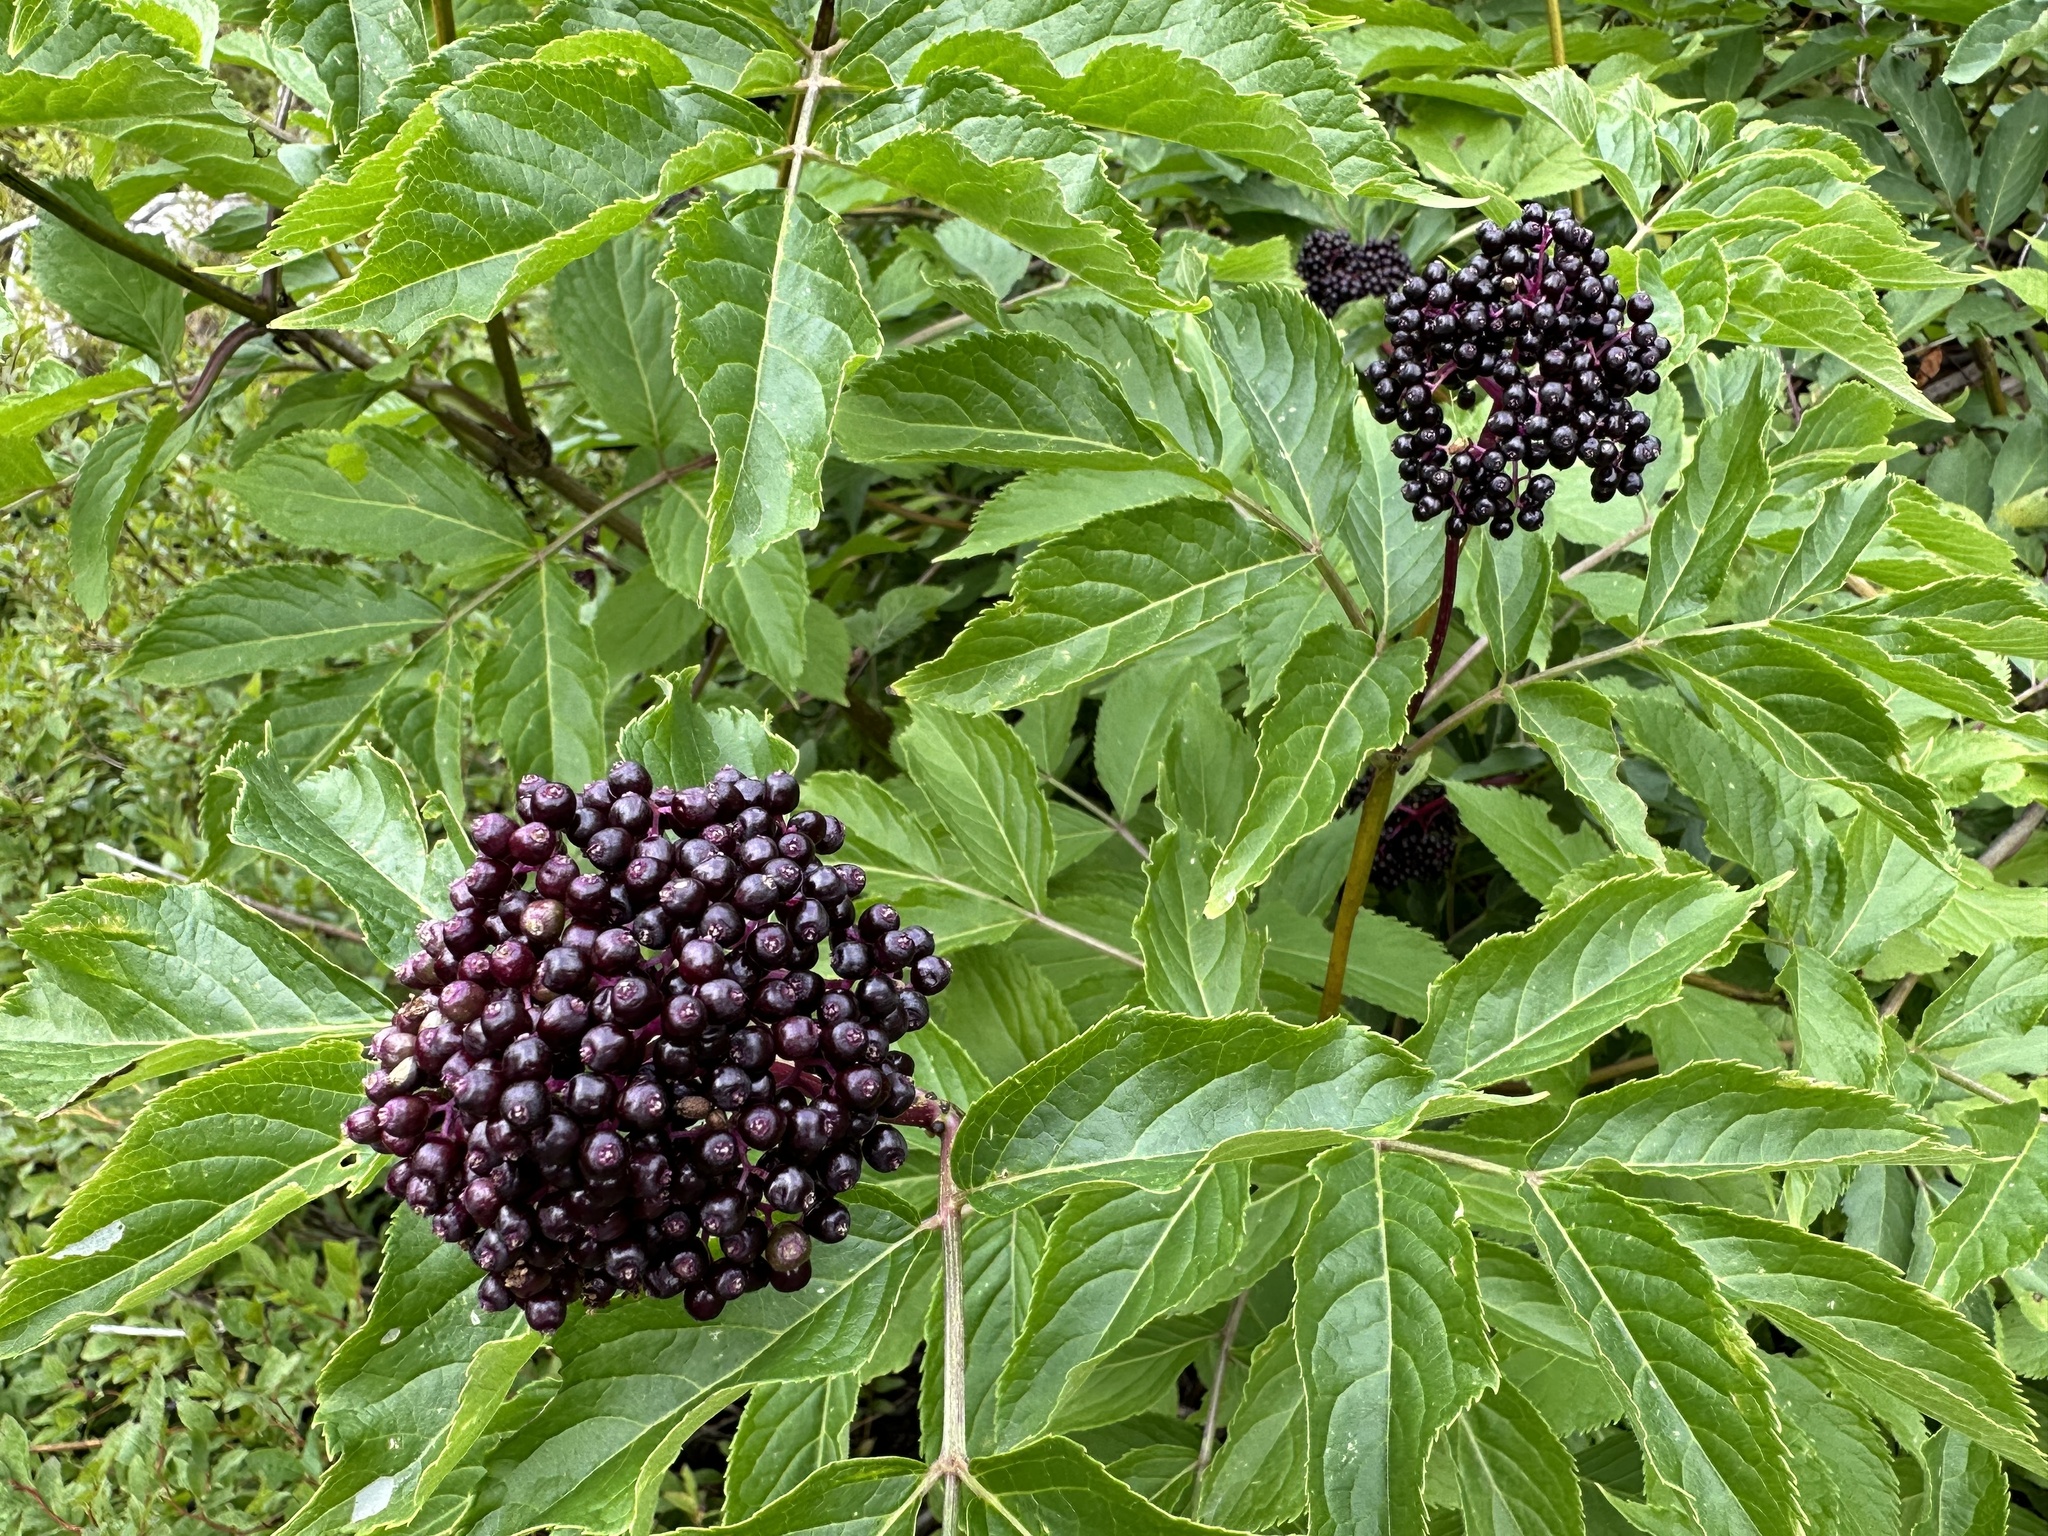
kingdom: Plantae
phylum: Tracheophyta
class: Magnoliopsida
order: Dipsacales
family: Viburnaceae
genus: Sambucus
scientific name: Sambucus racemosa
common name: Red-berried elder
